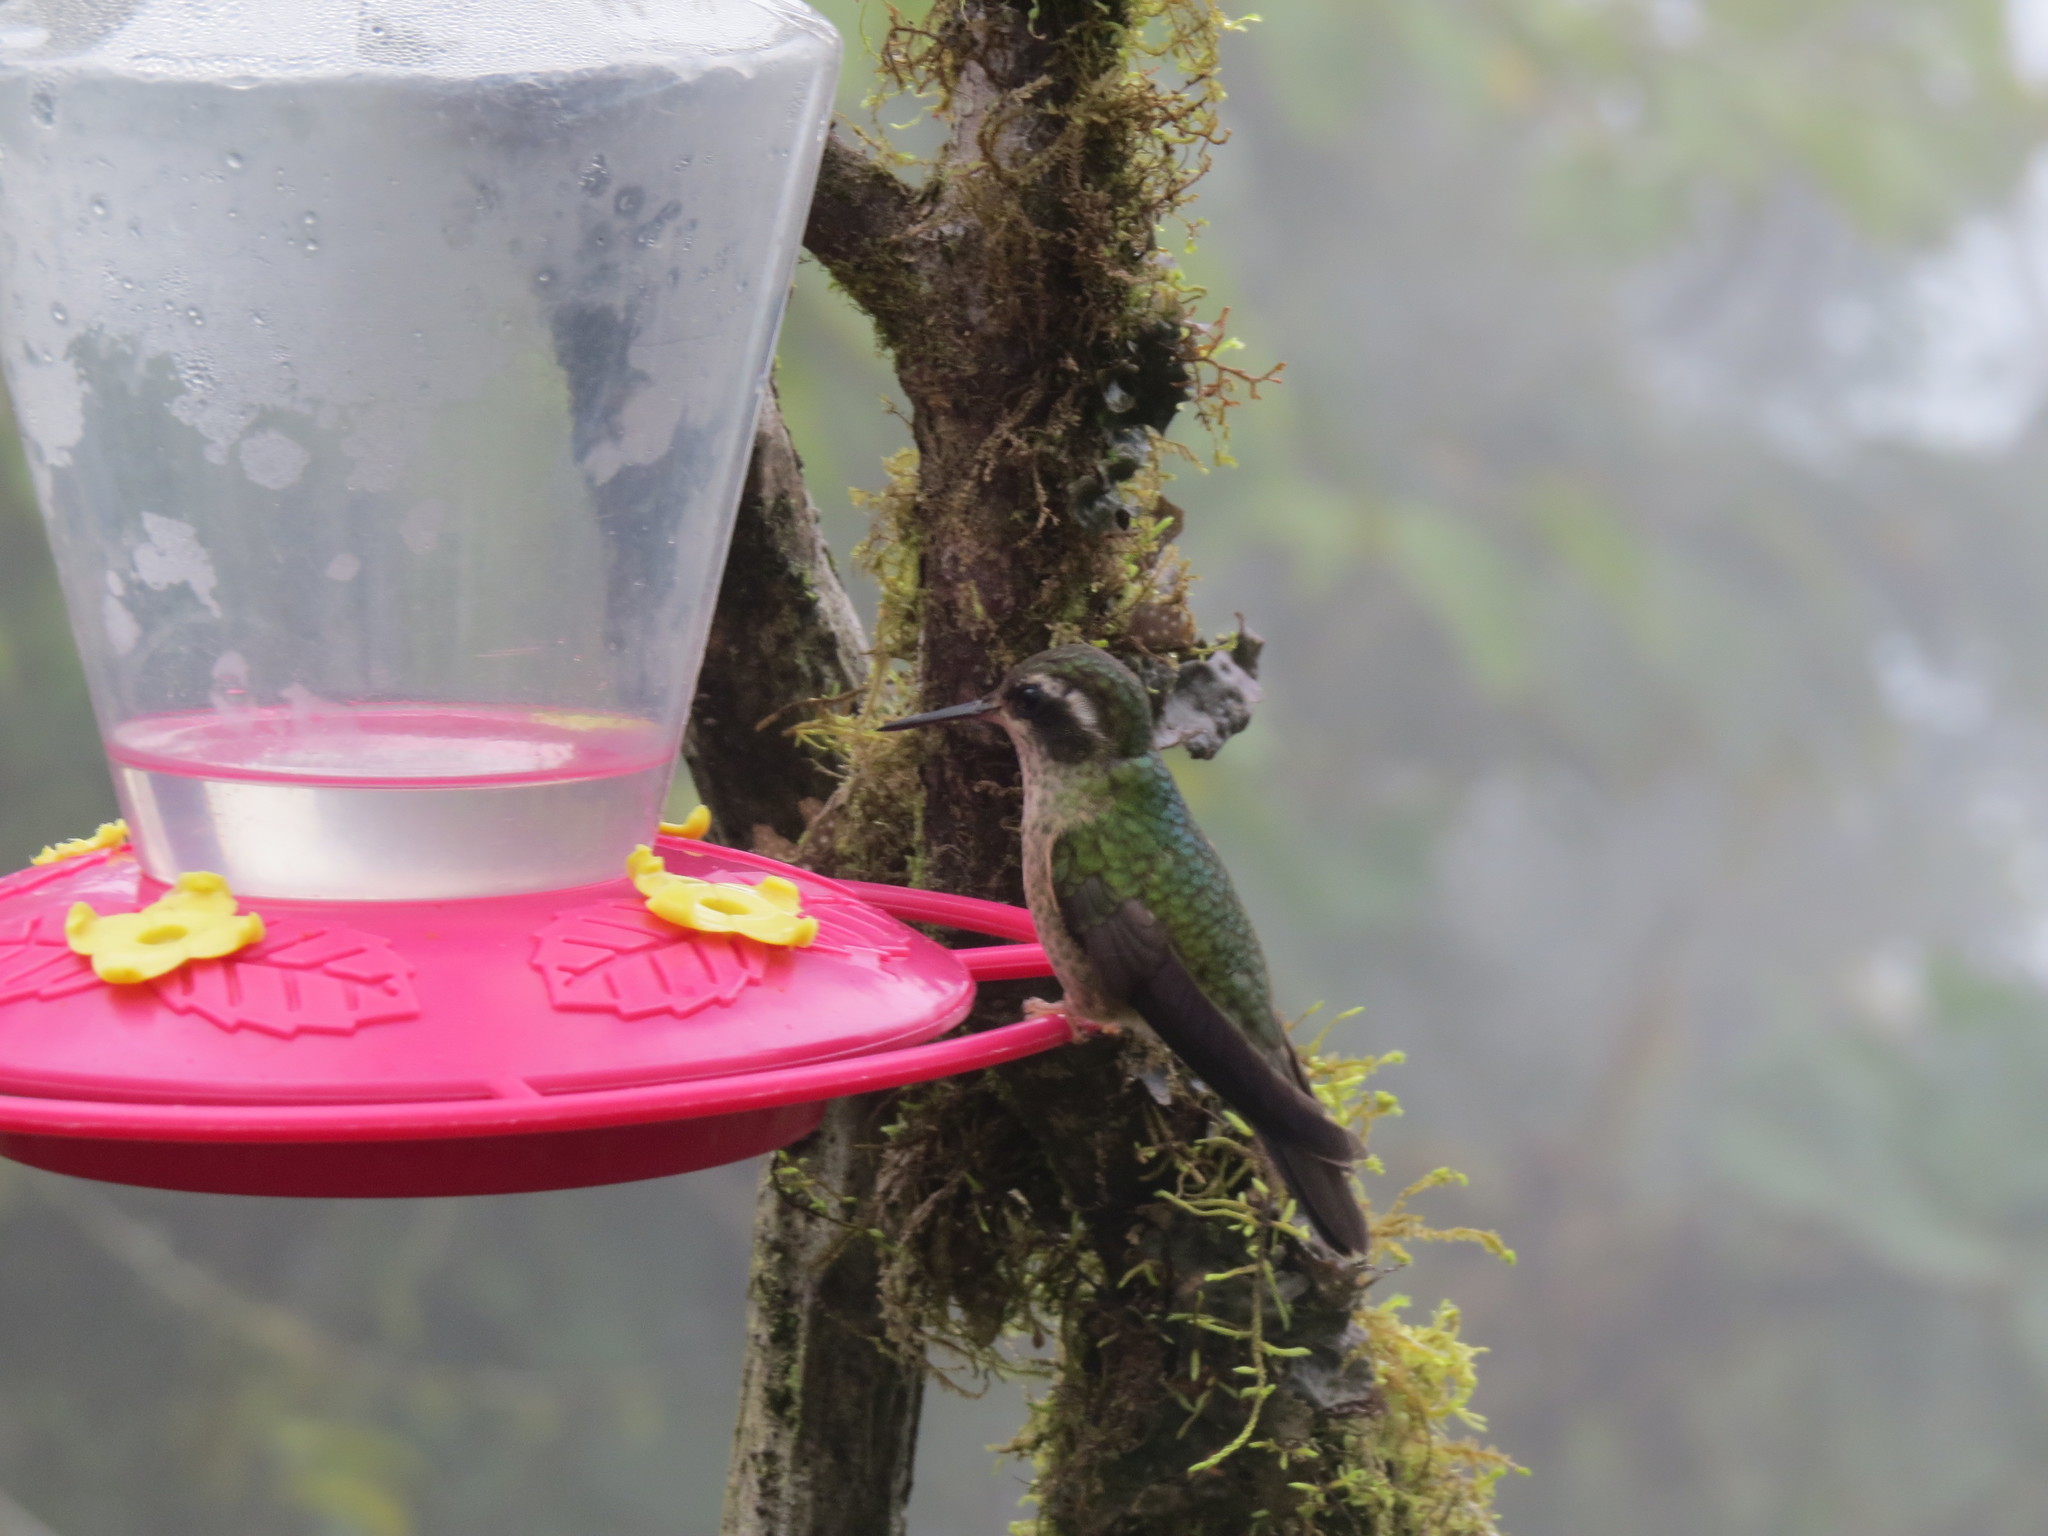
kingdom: Animalia
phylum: Chordata
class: Aves
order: Apodiformes
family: Trochilidae
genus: Adelomyia
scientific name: Adelomyia melanogenys
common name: Speckled hummingbird
